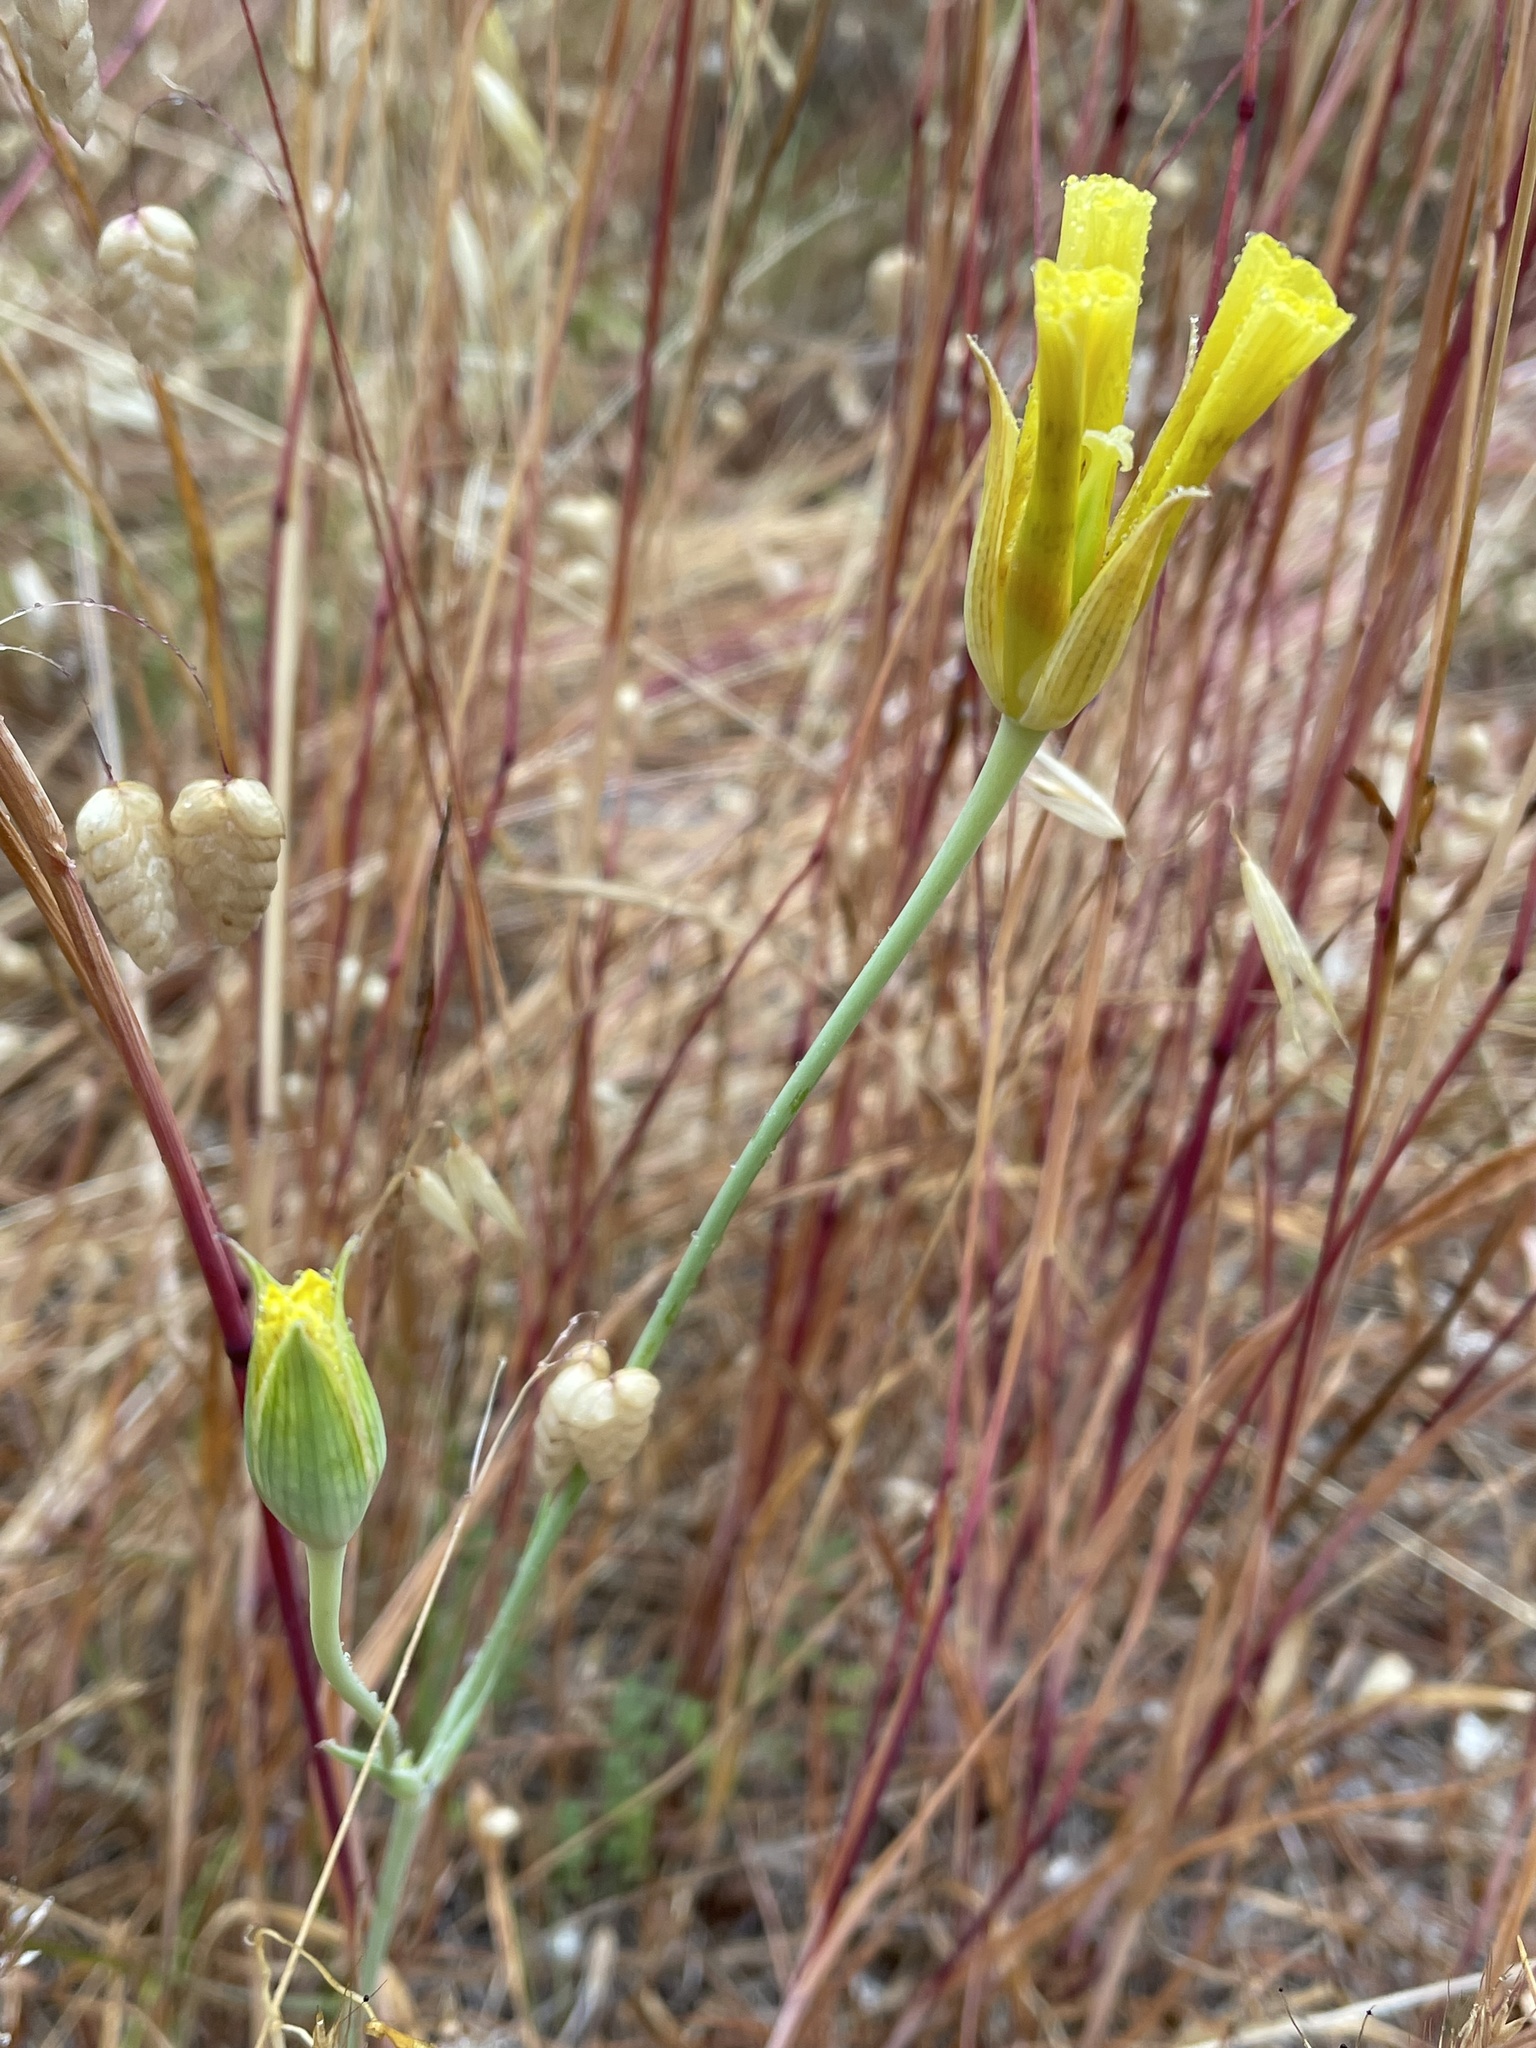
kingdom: Plantae
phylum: Tracheophyta
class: Liliopsida
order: Liliales
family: Liliaceae
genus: Calochortus
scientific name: Calochortus luteus
